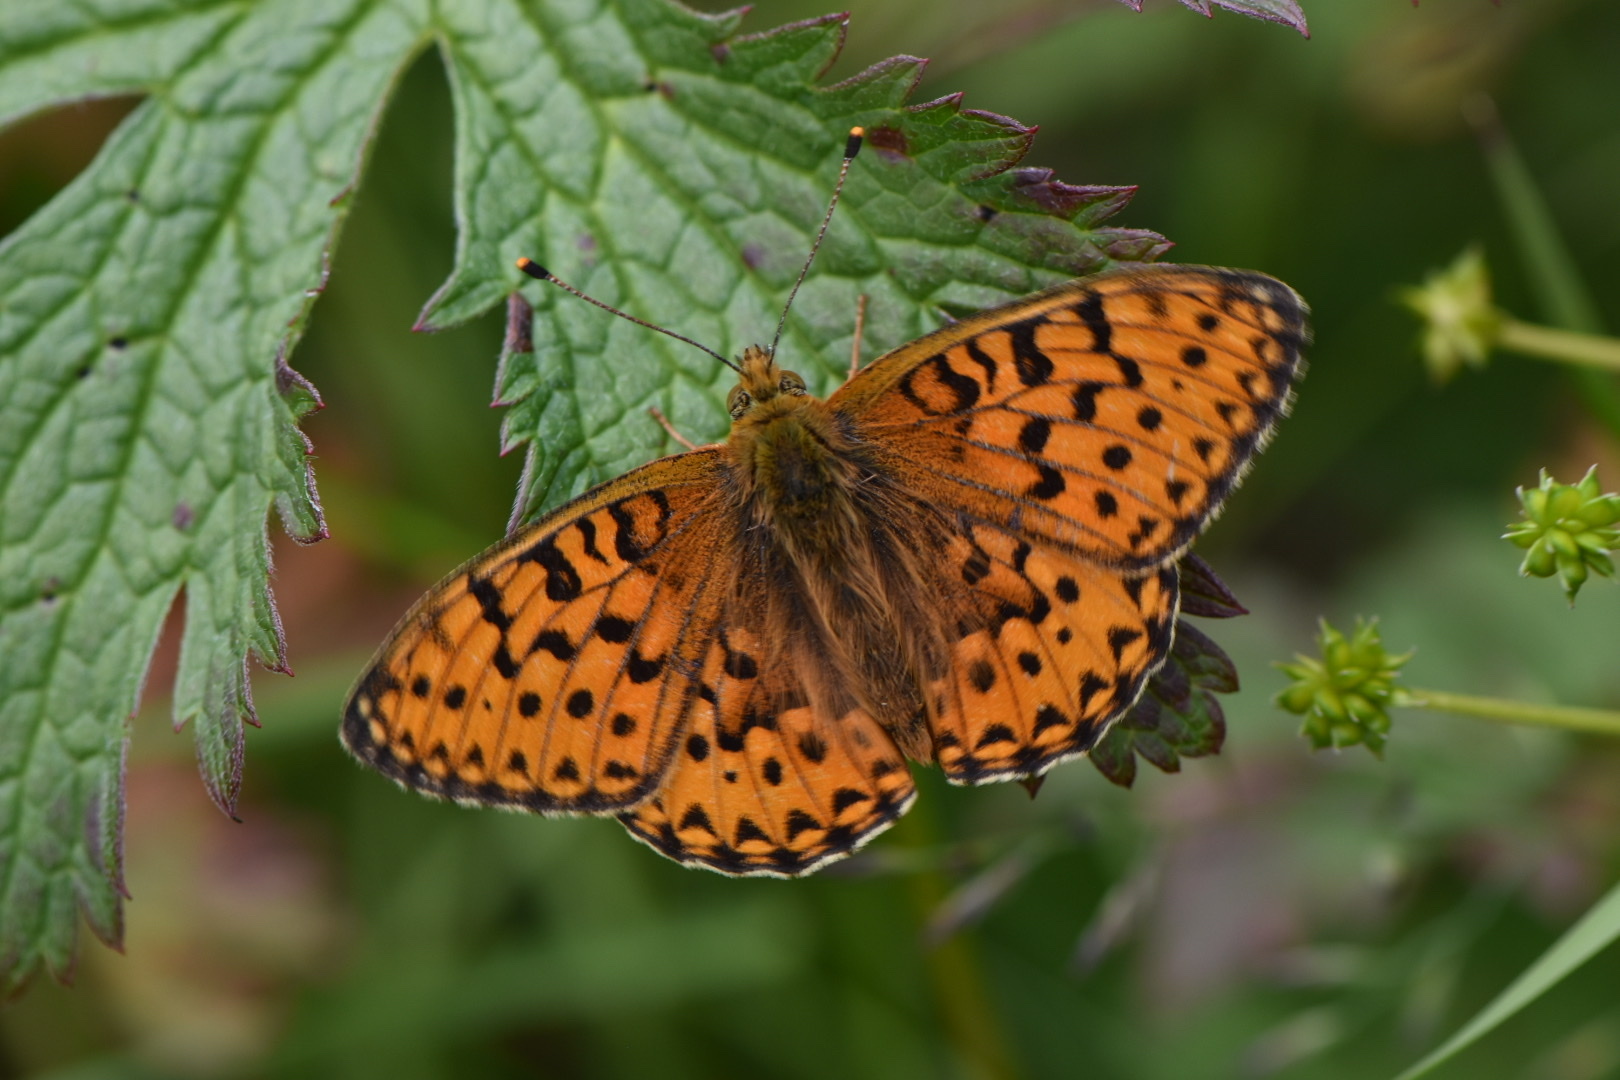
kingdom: Animalia
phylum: Arthropoda
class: Insecta
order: Lepidoptera
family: Nymphalidae
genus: Speyeria
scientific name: Speyeria aglaja
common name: Dark green fritillary
